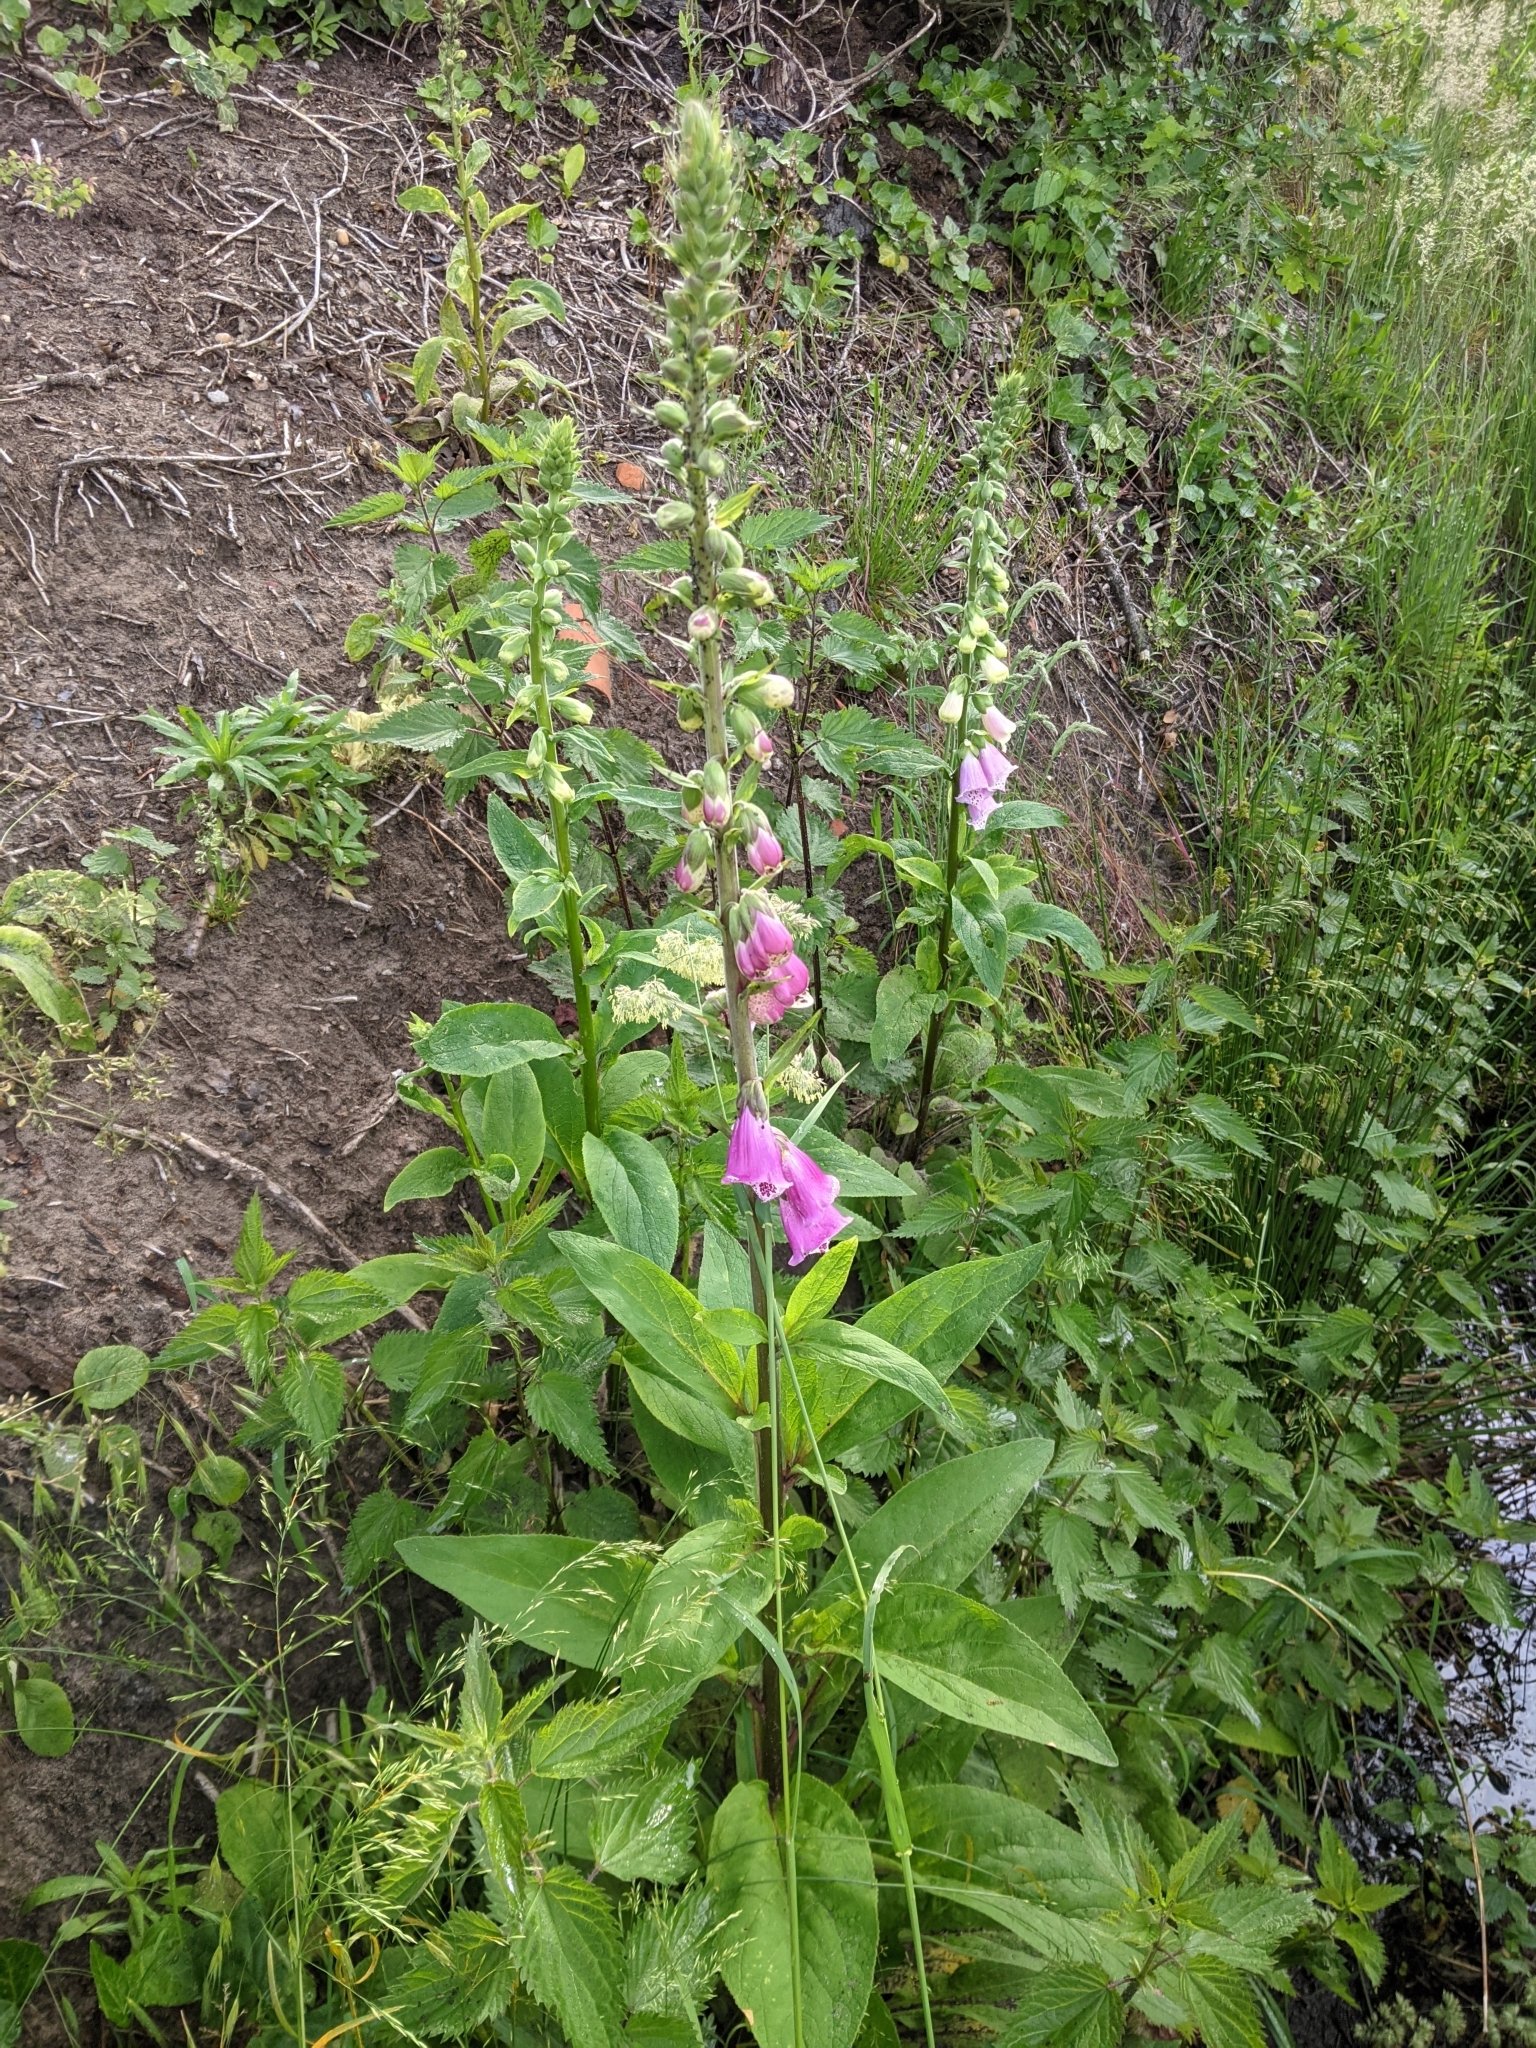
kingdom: Plantae
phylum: Tracheophyta
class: Magnoliopsida
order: Lamiales
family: Plantaginaceae
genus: Digitalis
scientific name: Digitalis purpurea
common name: Foxglove
